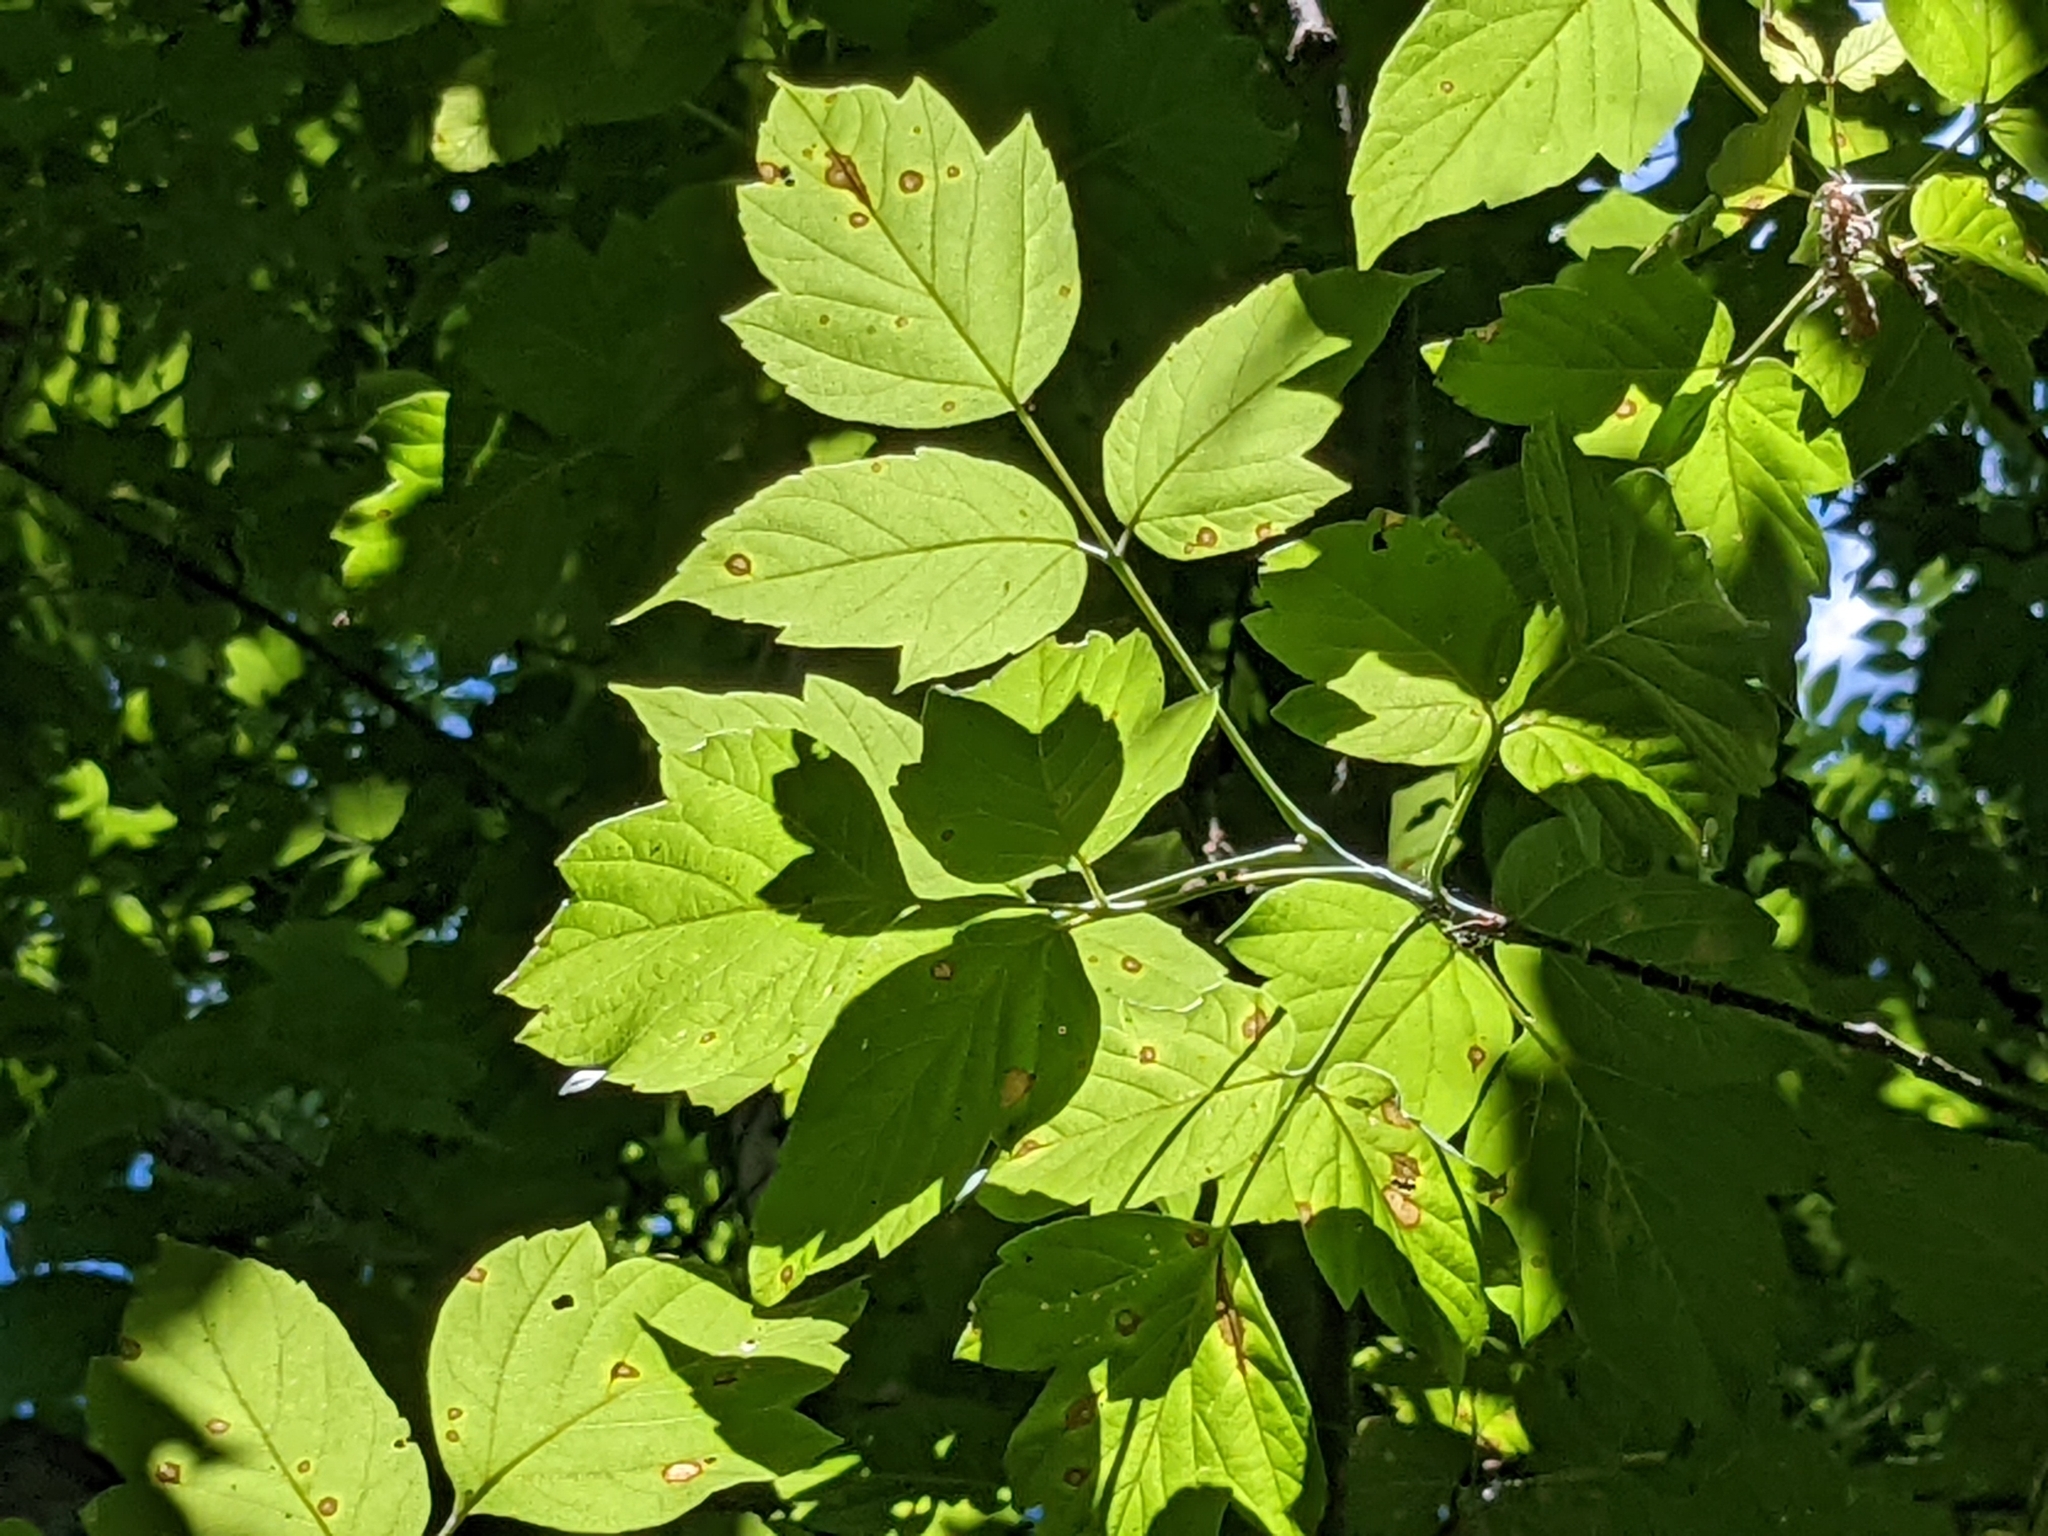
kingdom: Plantae
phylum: Tracheophyta
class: Magnoliopsida
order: Sapindales
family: Sapindaceae
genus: Acer
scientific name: Acer negundo
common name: Ashleaf maple
